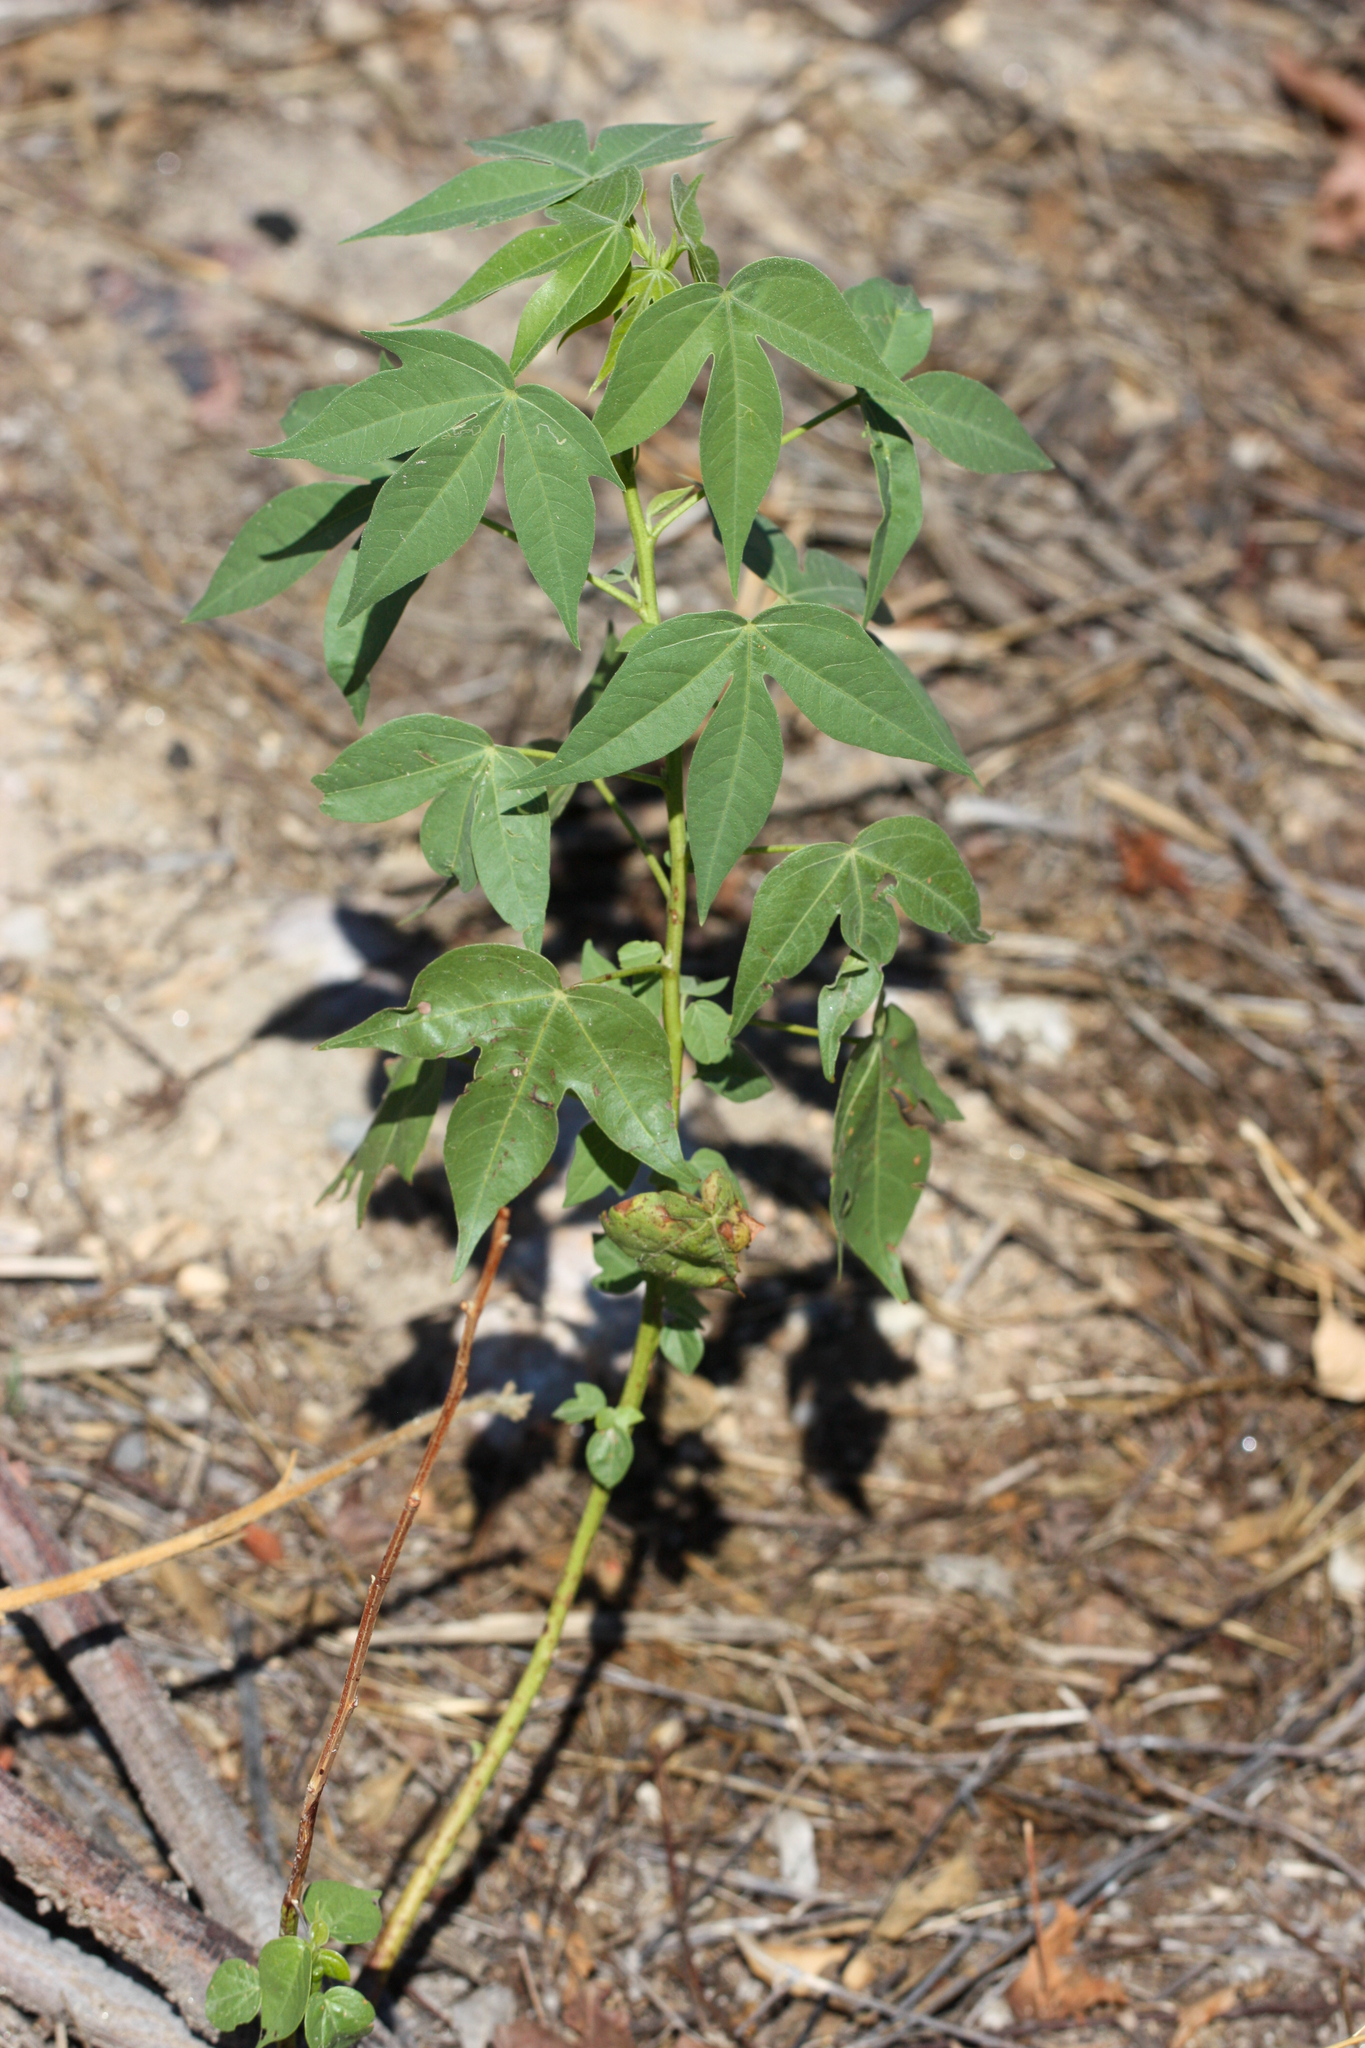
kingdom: Plantae
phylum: Tracheophyta
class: Magnoliopsida
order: Malvales
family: Malvaceae
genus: Gossypium
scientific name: Gossypium thurberi
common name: Desert cotton
